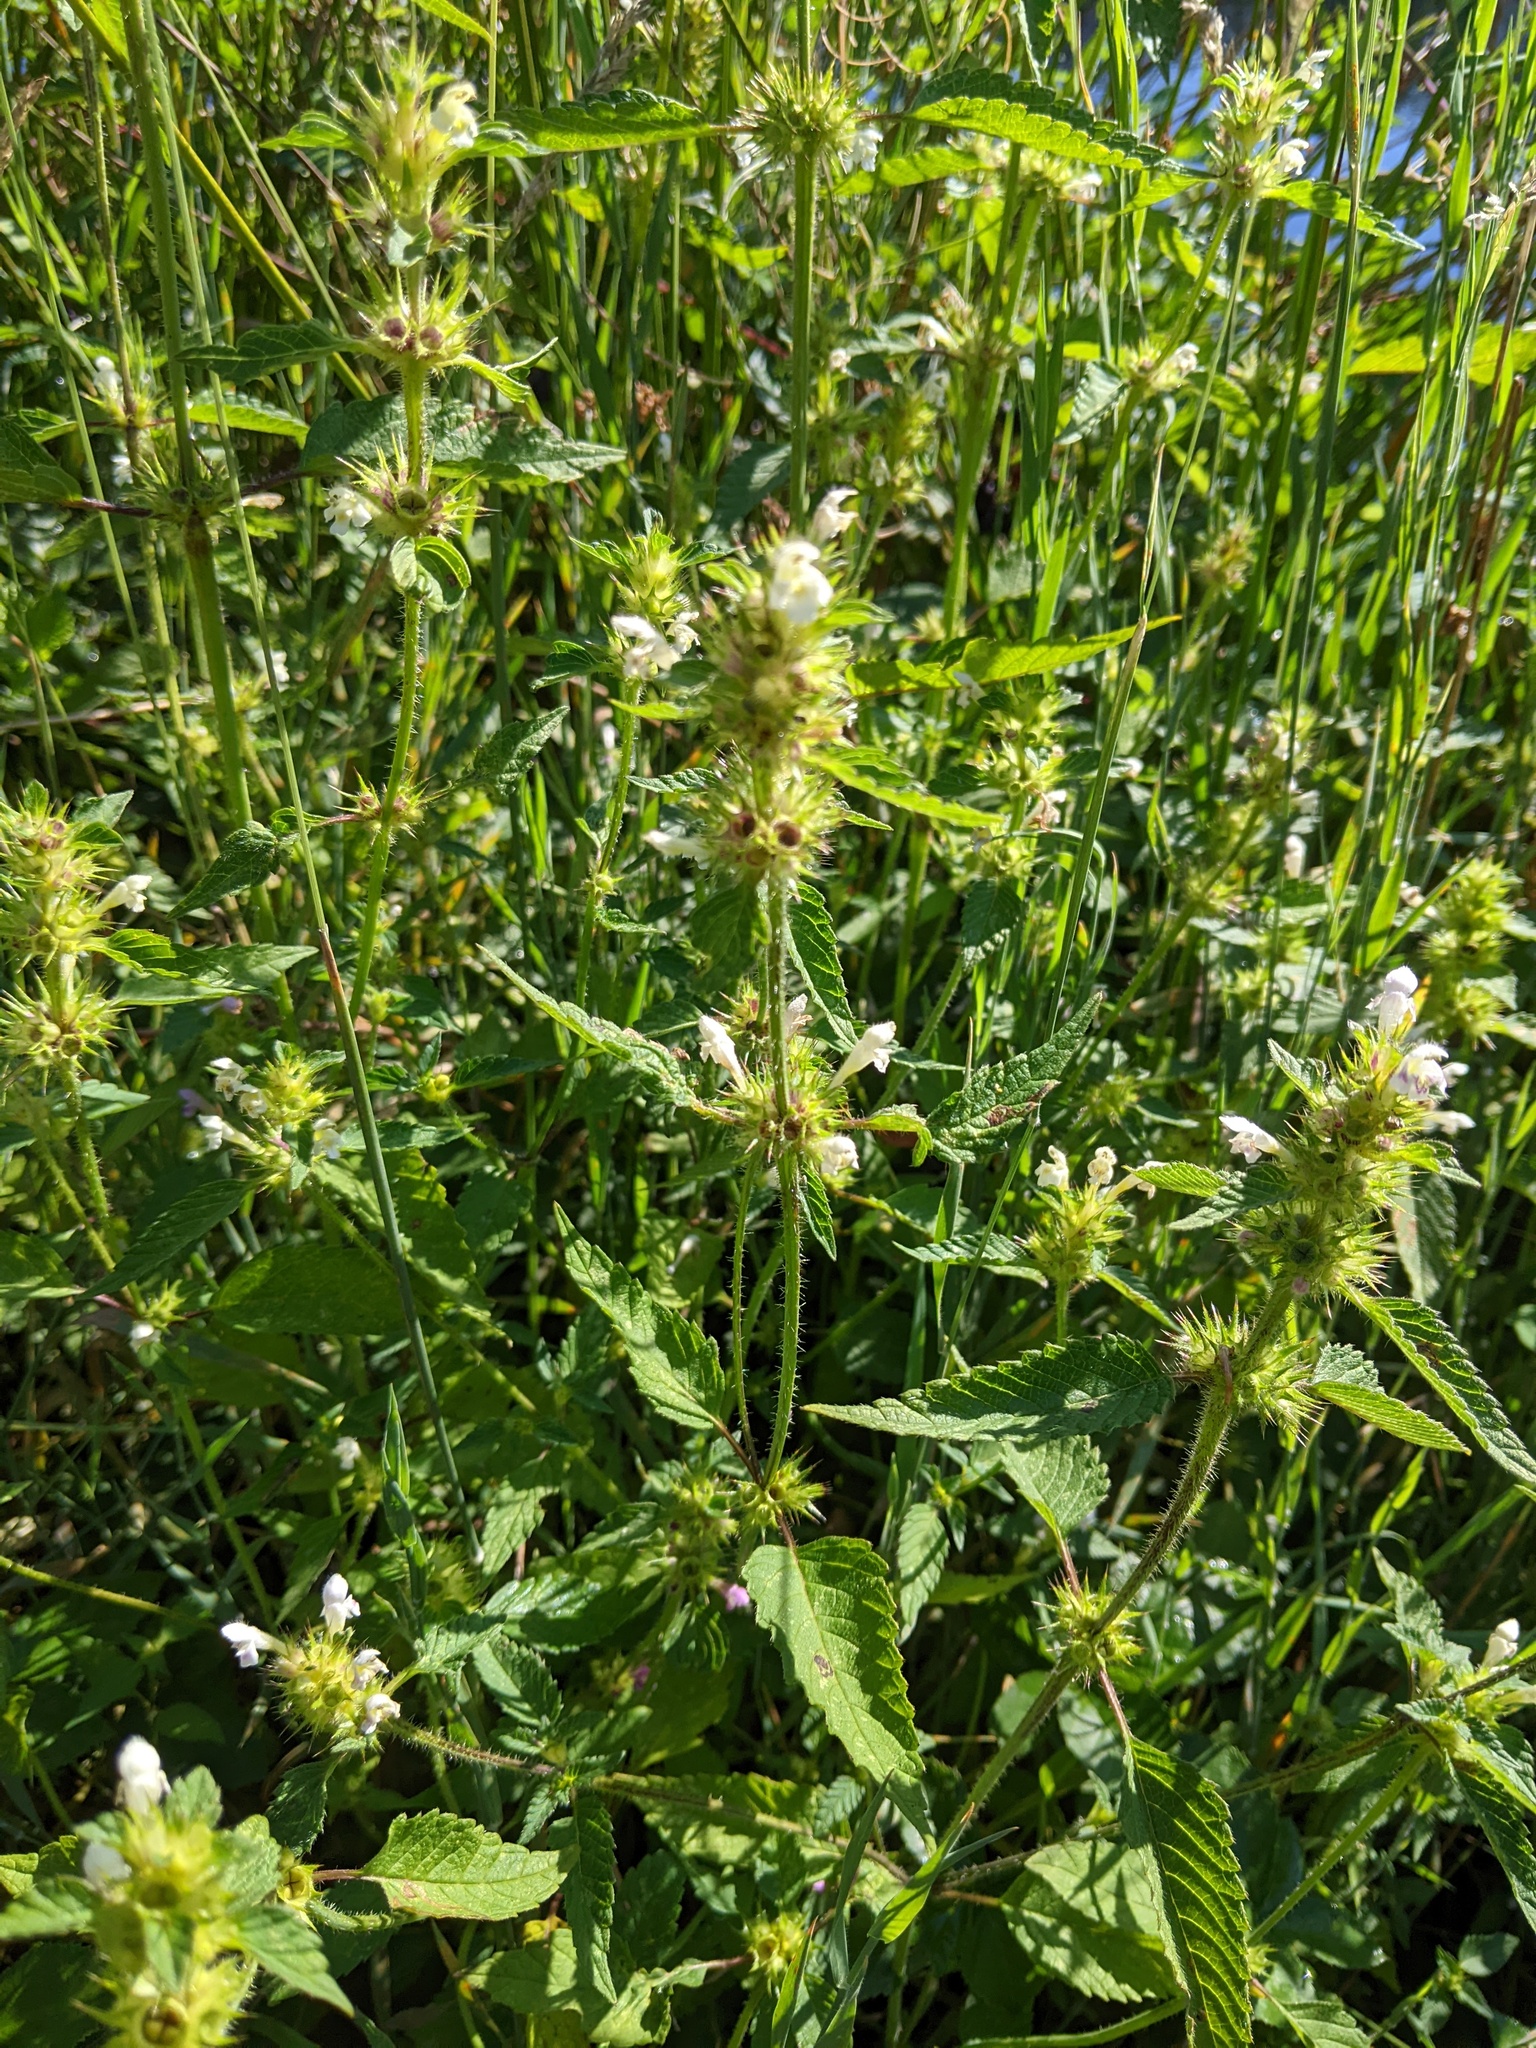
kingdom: Plantae
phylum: Tracheophyta
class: Magnoliopsida
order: Lamiales
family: Lamiaceae
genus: Galeopsis
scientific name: Galeopsis tetrahit
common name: Common hemp-nettle
